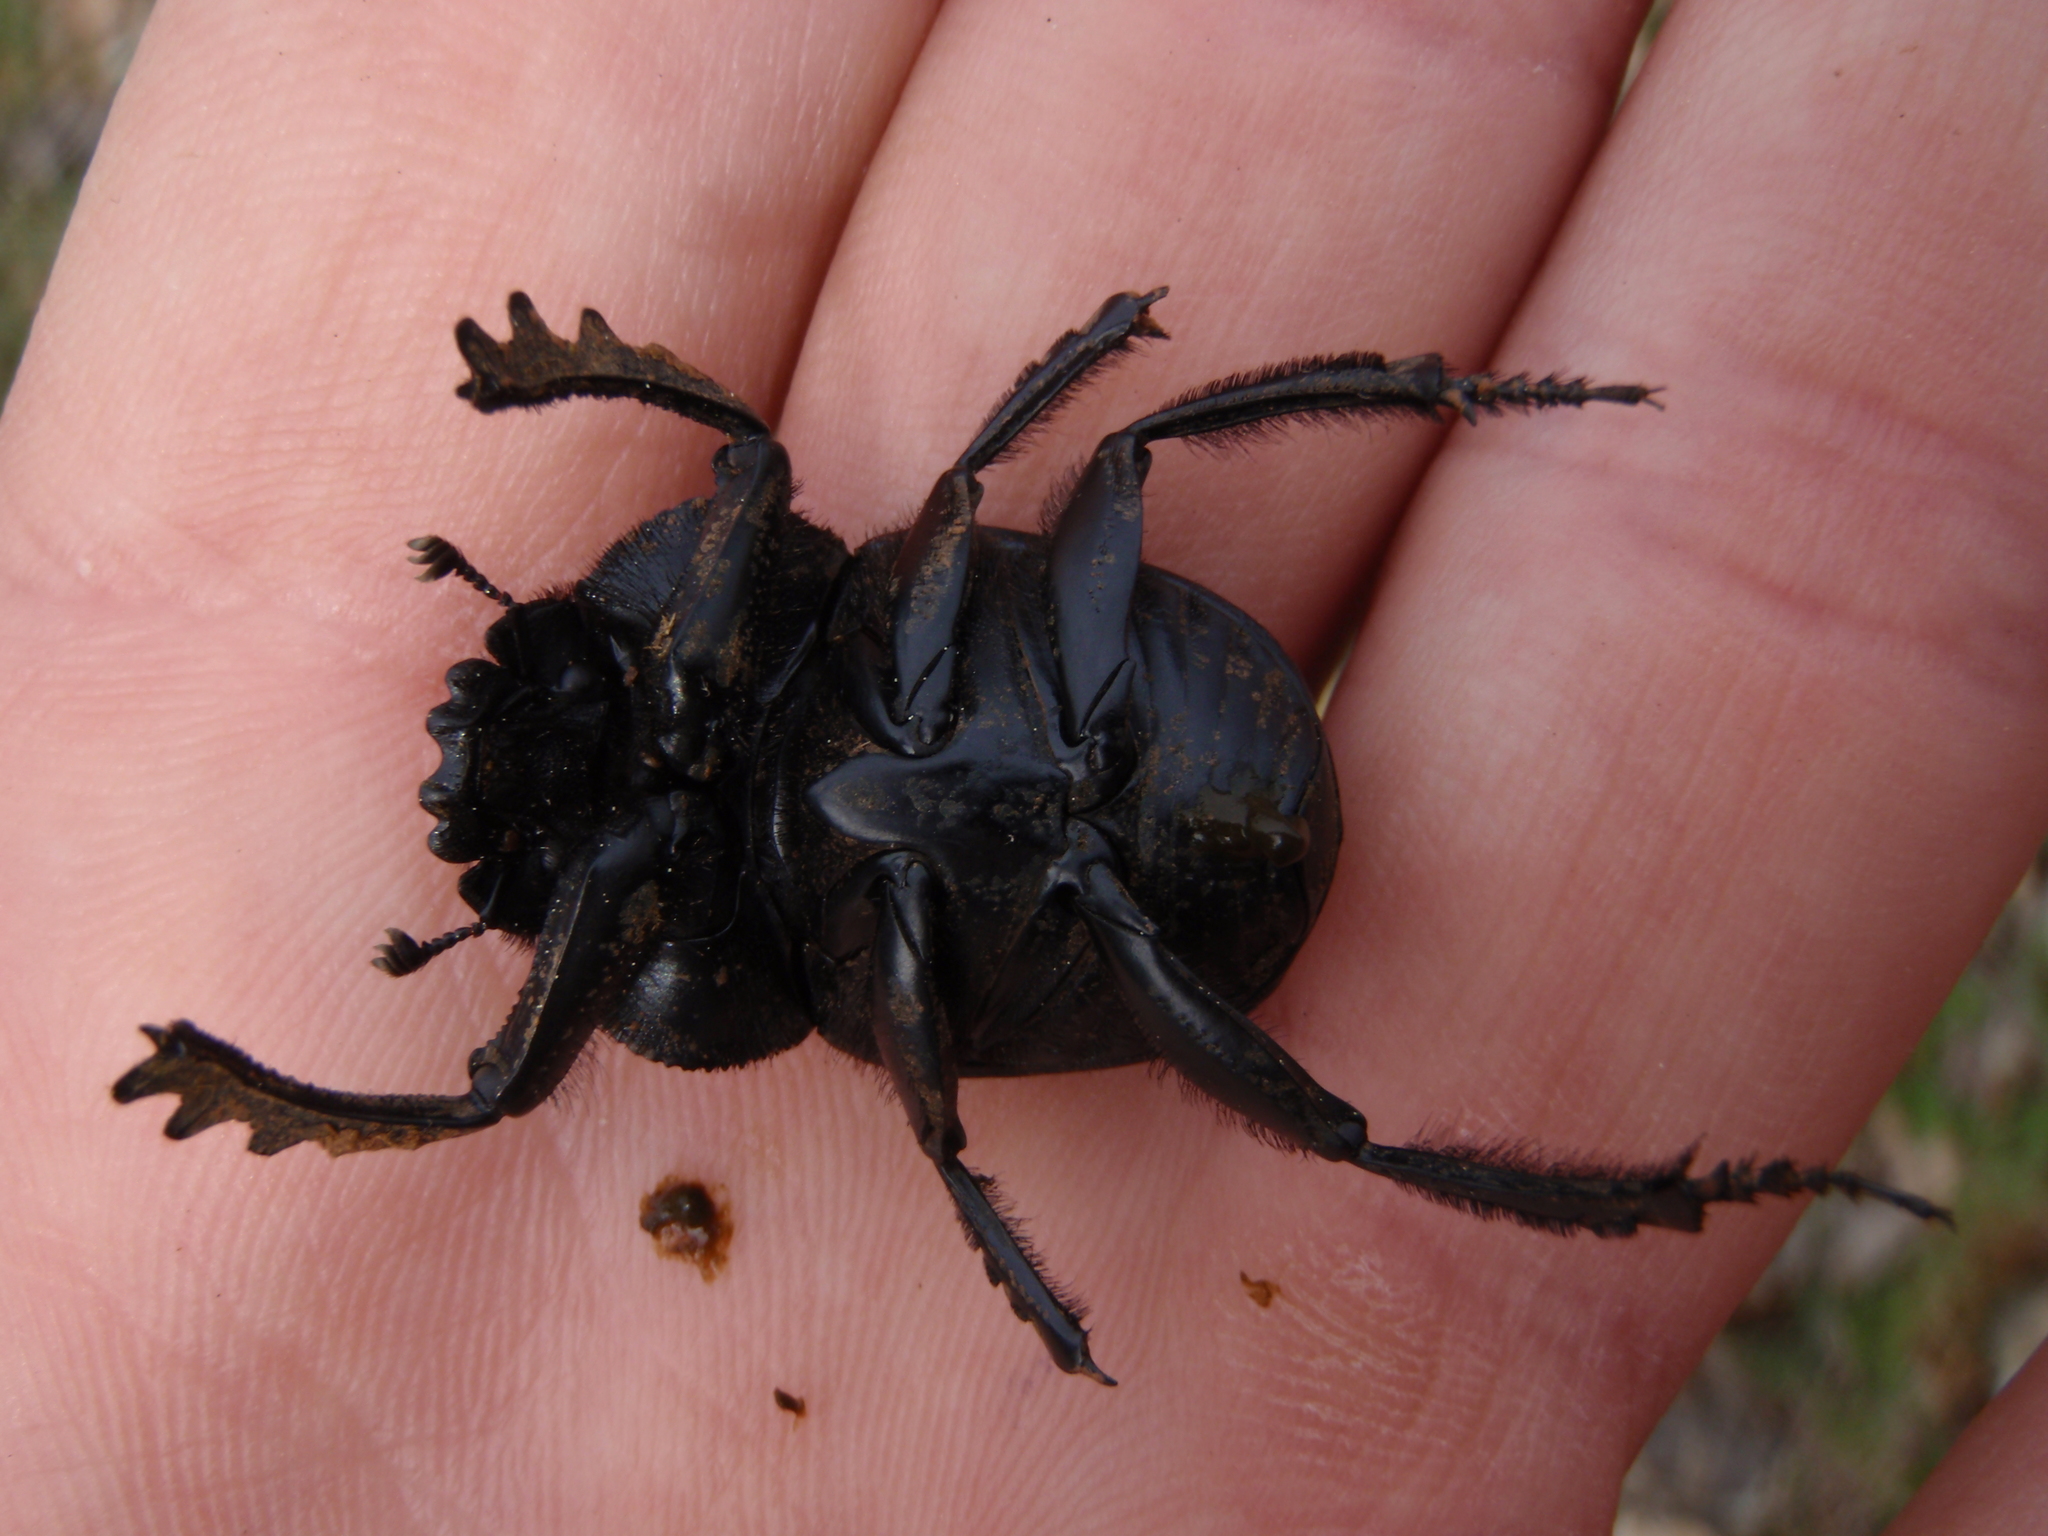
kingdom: Animalia
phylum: Arthropoda
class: Insecta
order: Coleoptera
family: Scarabaeidae
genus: Ateuchetus
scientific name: Ateuchetus laticollis
